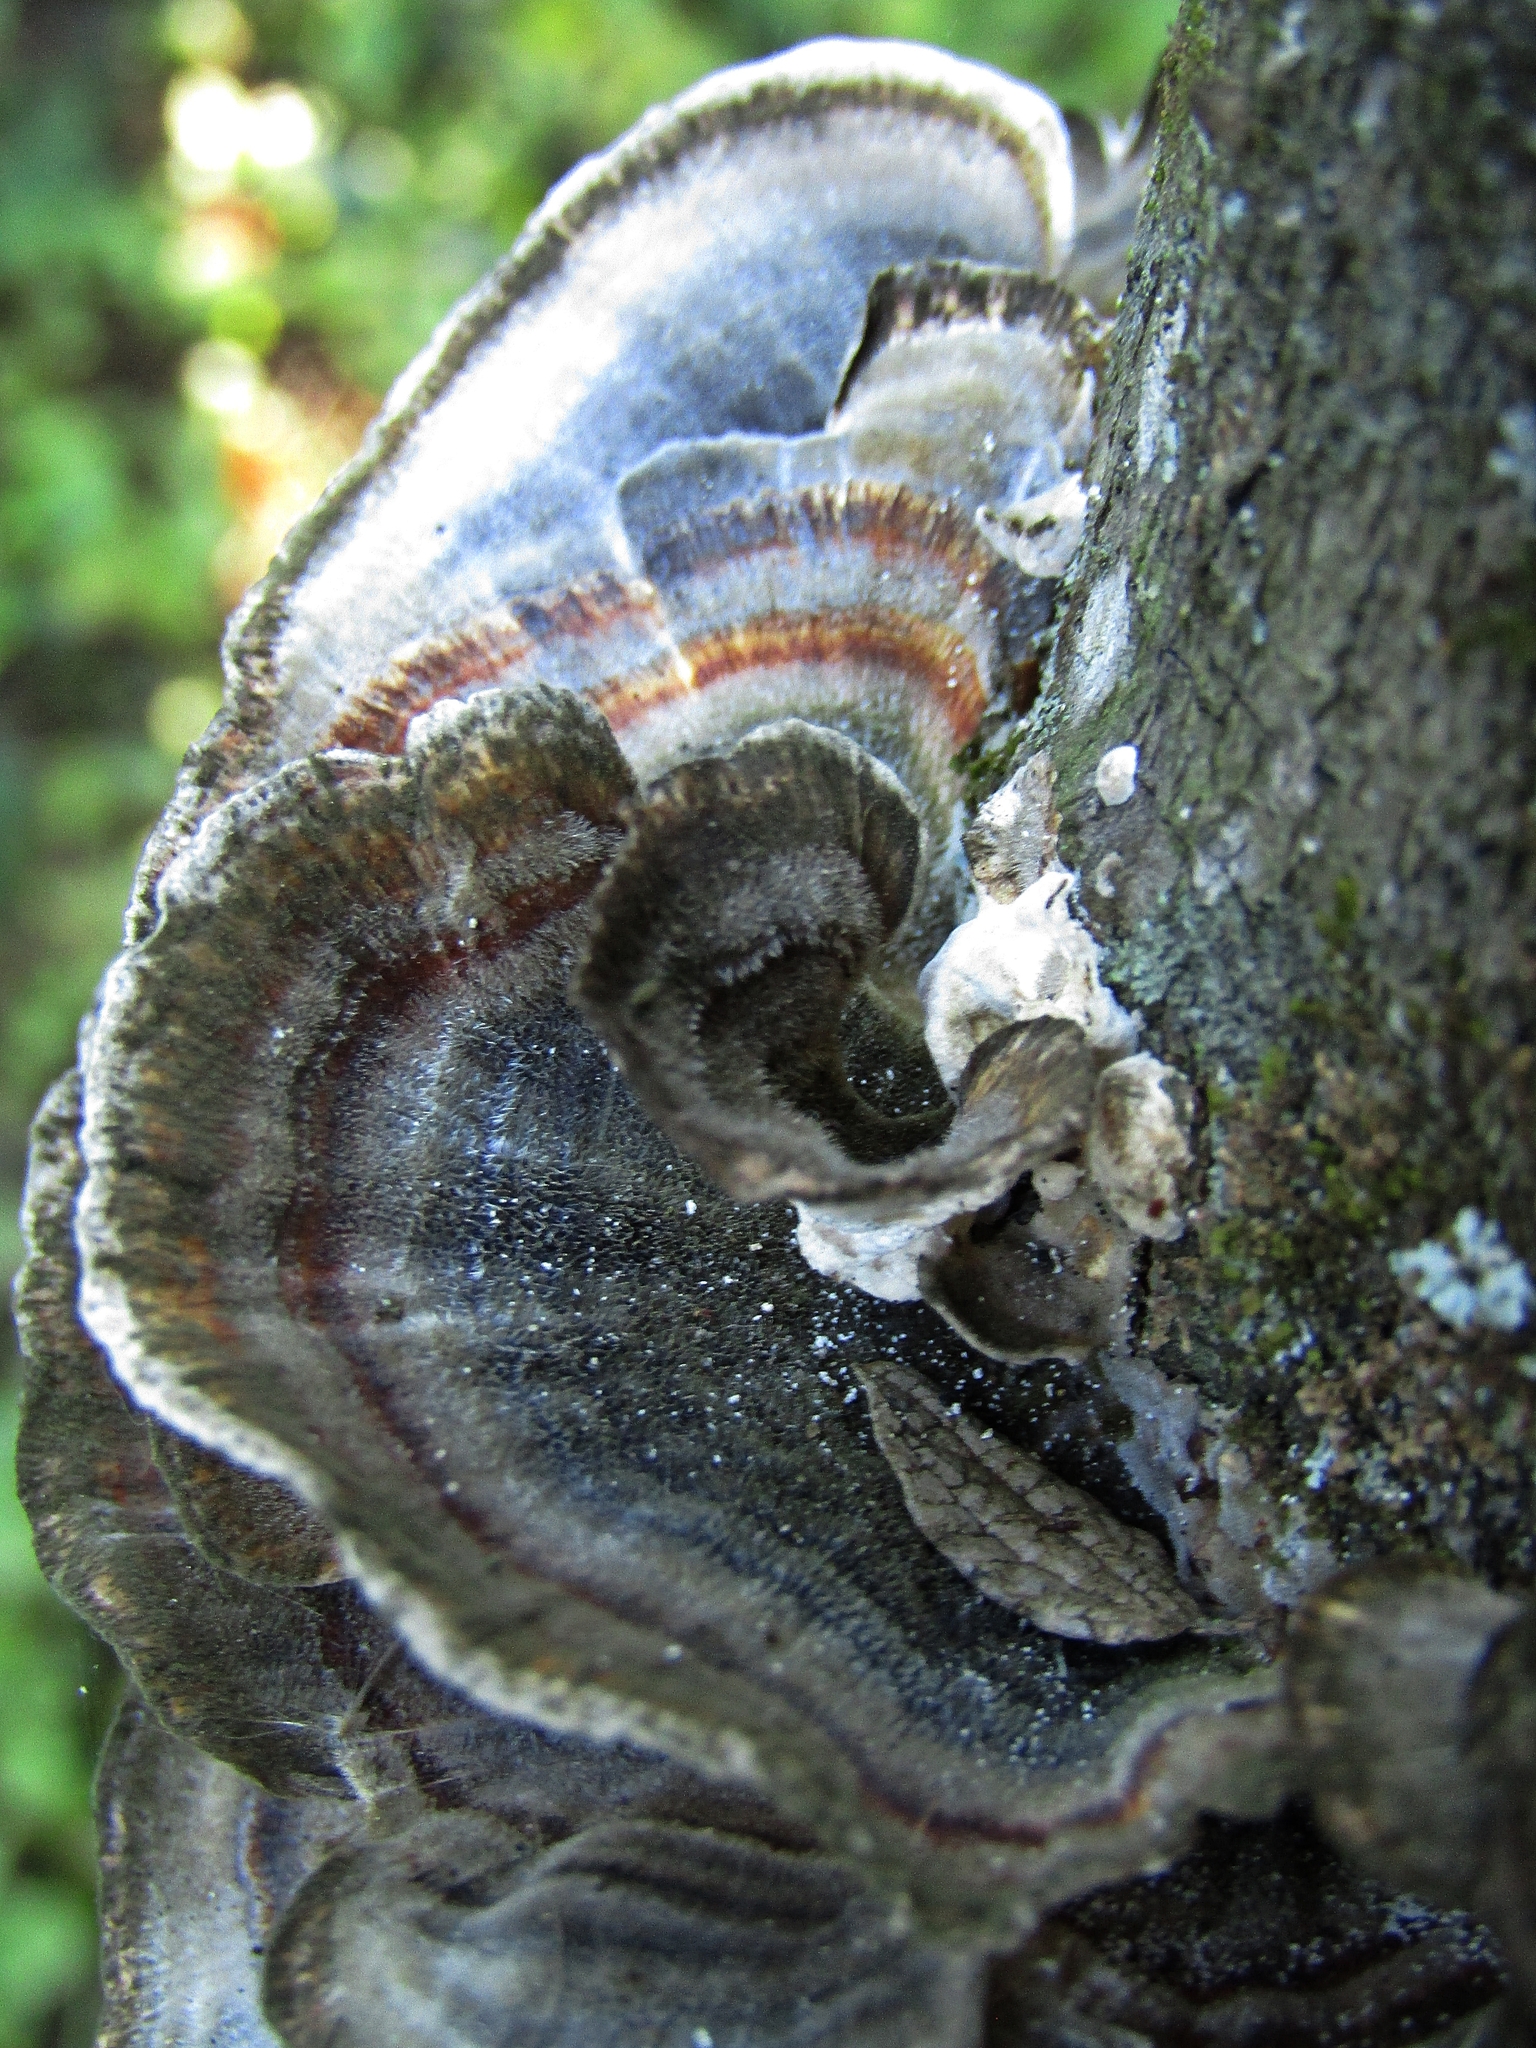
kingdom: Fungi
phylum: Basidiomycota
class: Agaricomycetes
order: Polyporales
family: Polyporaceae
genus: Trametes
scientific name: Trametes versicolor
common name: Turkeytail
